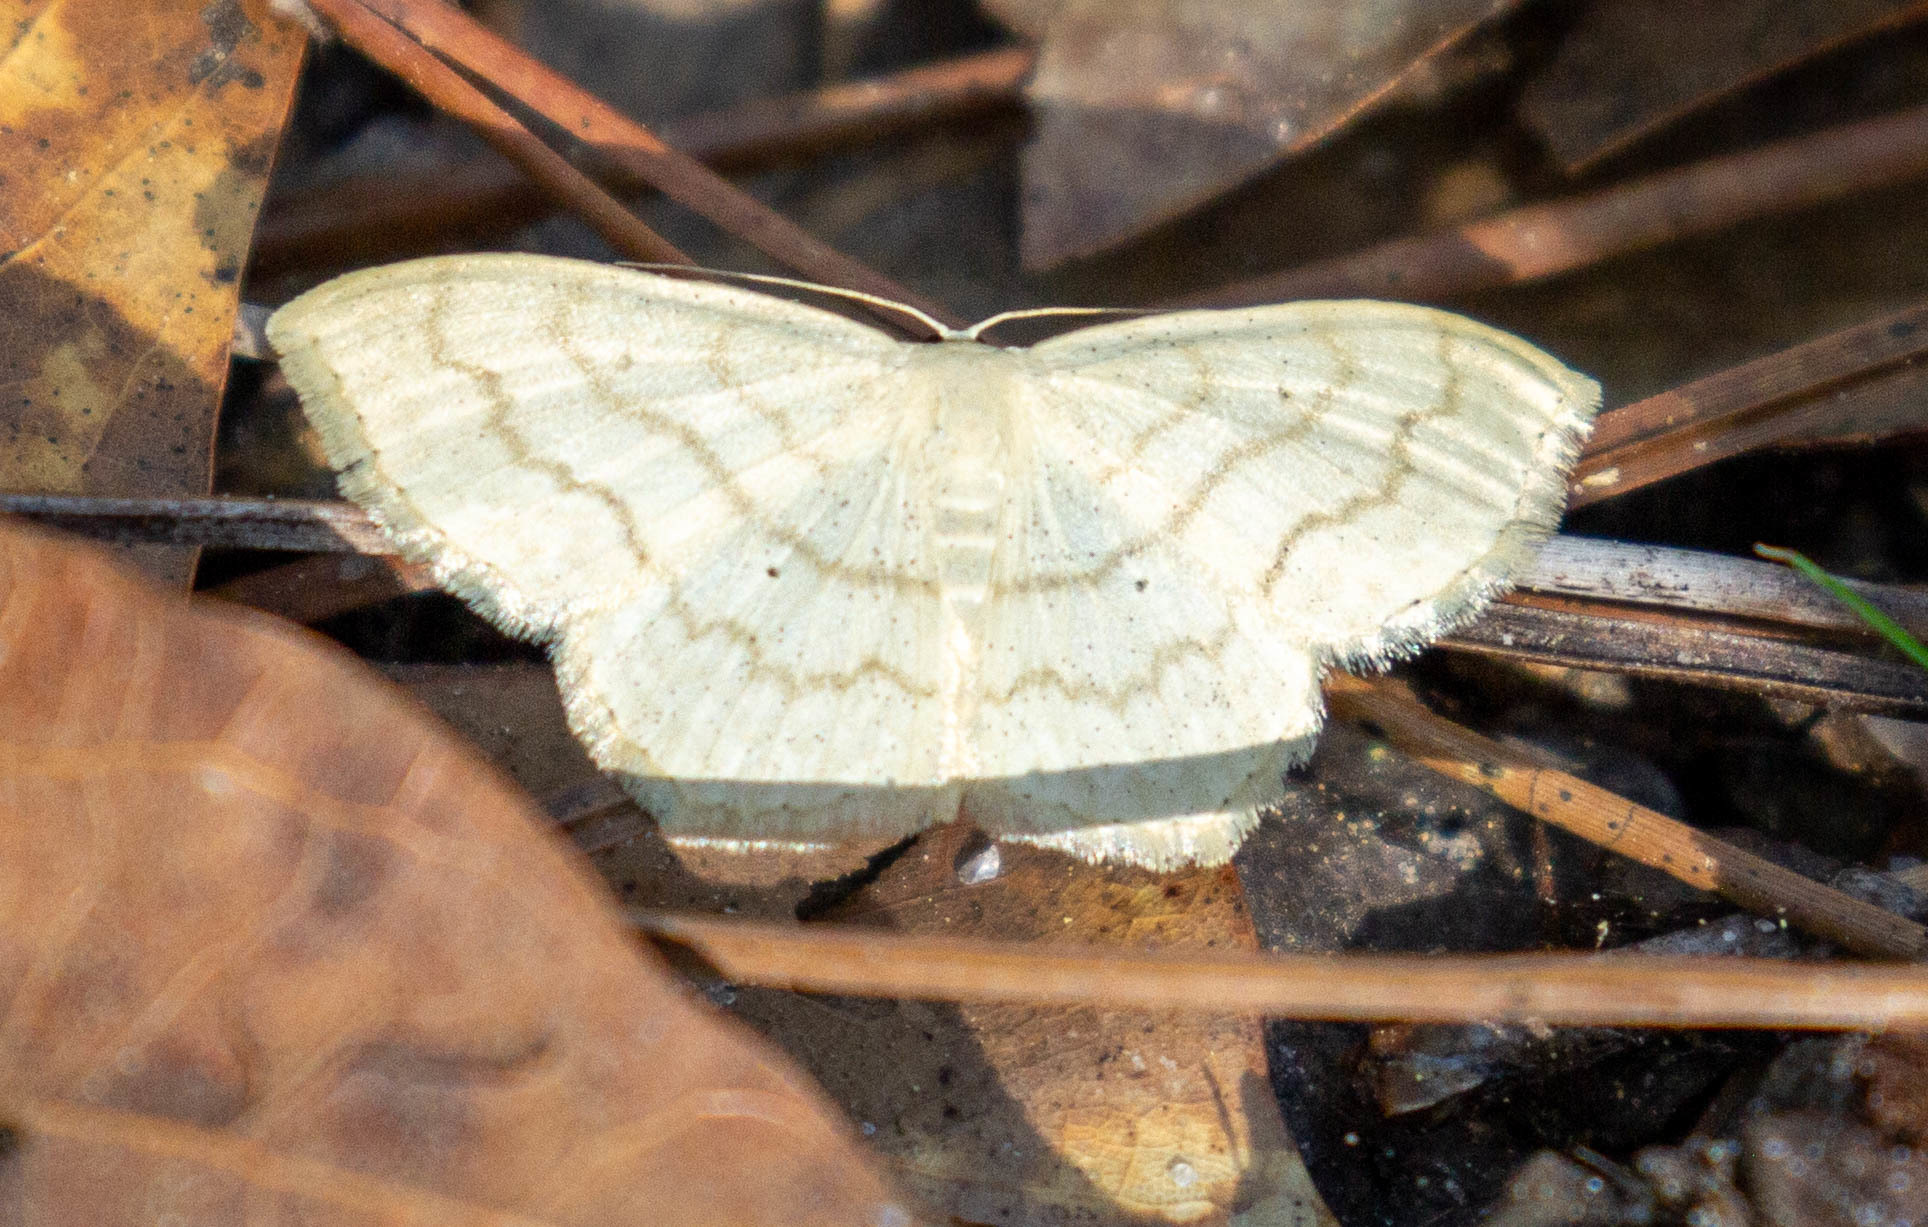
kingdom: Animalia
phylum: Arthropoda
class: Insecta
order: Lepidoptera
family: Geometridae
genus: Scopula
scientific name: Scopula limboundata
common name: Large lace border
